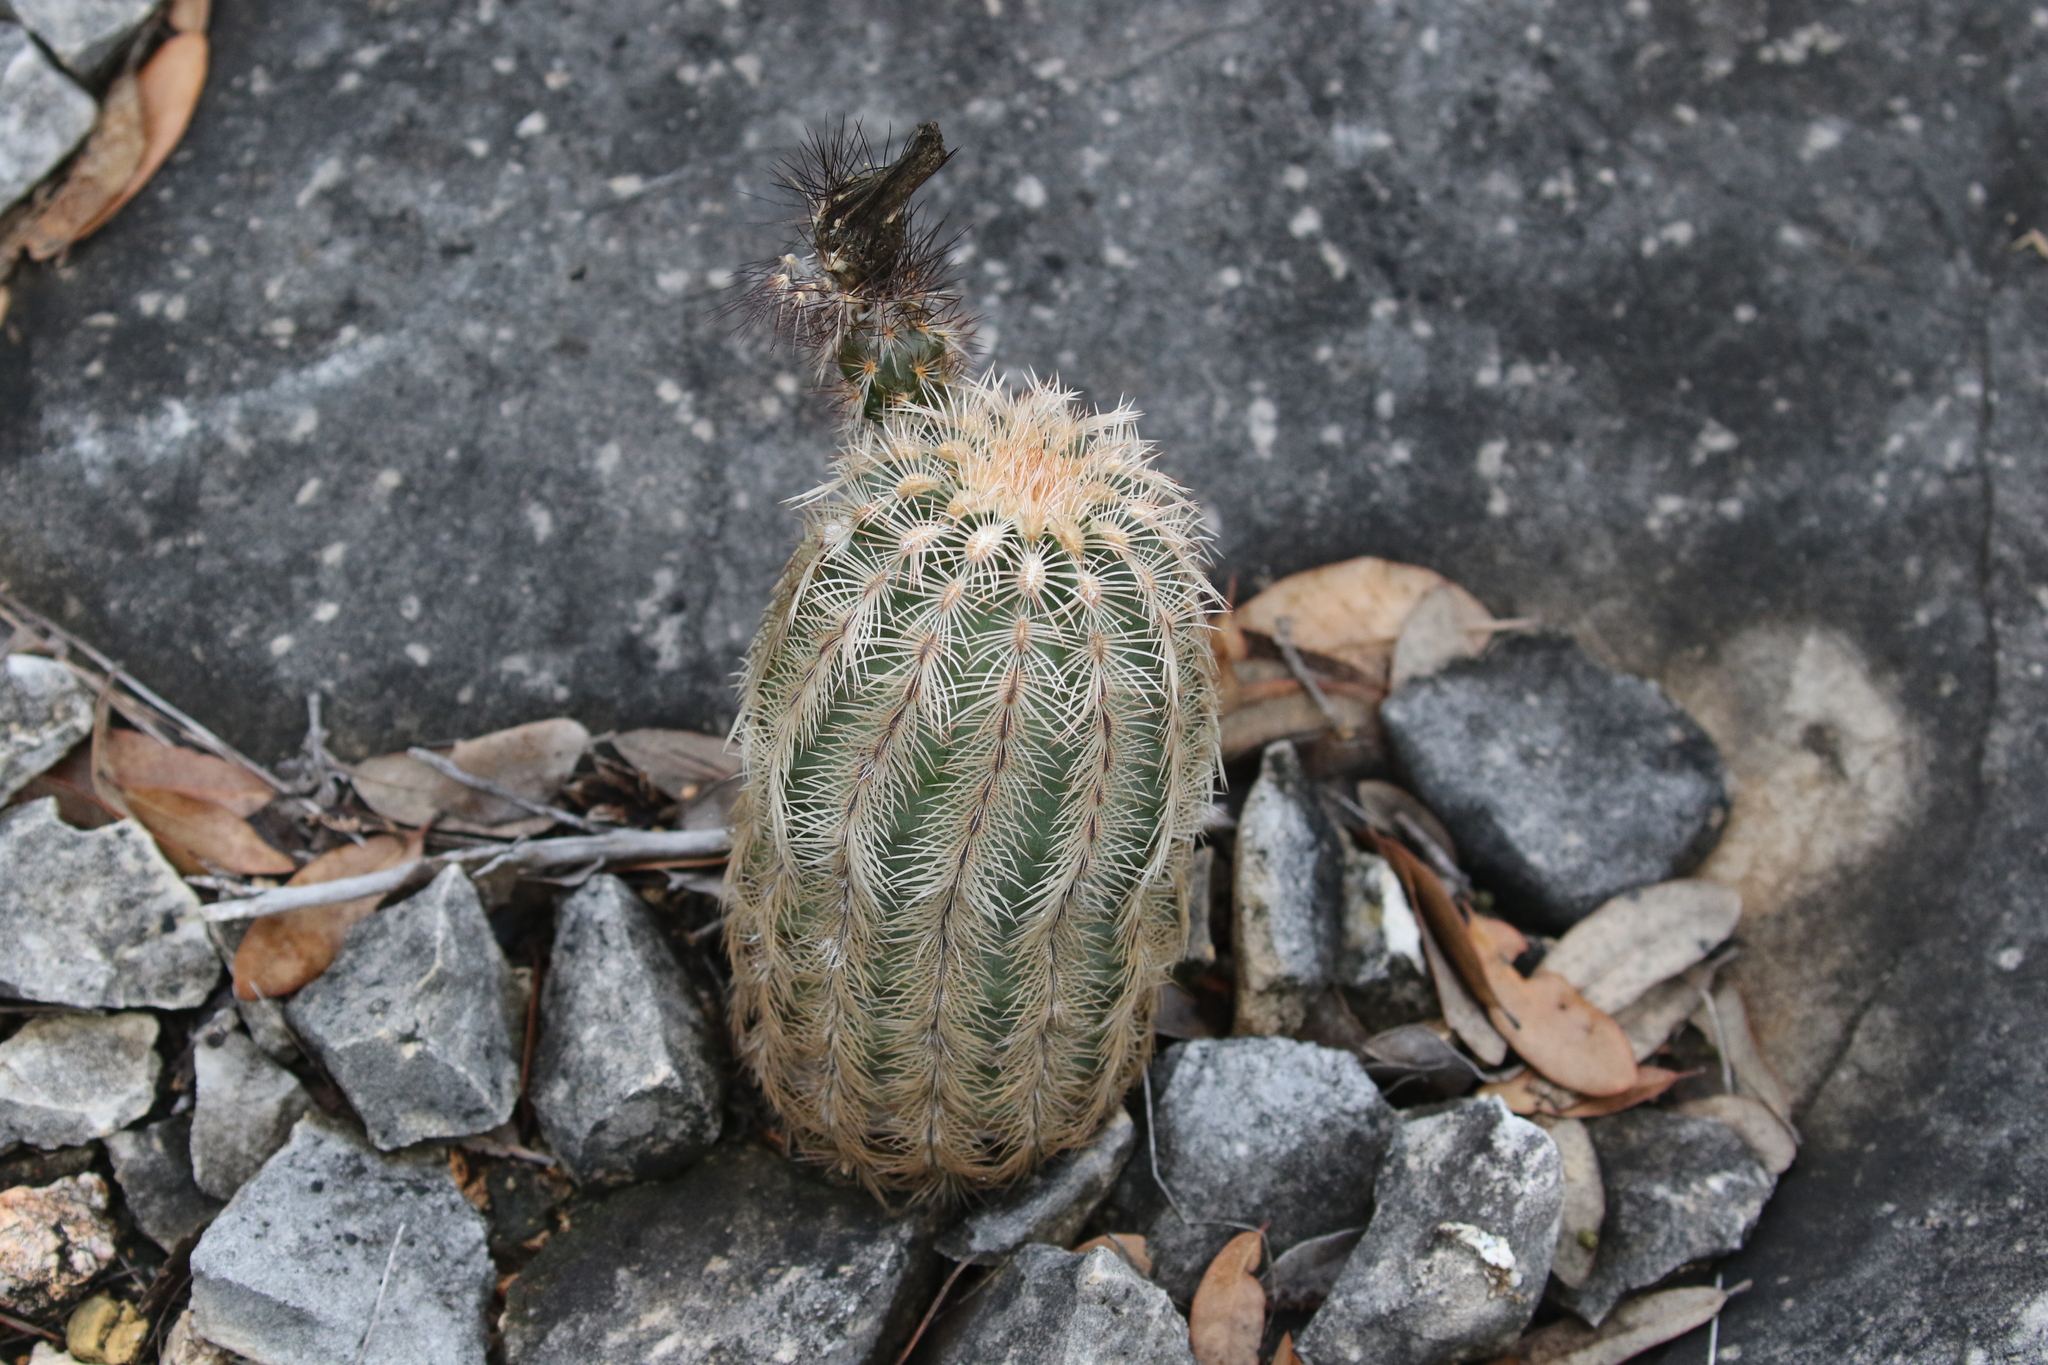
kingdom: Plantae
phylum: Tracheophyta
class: Magnoliopsida
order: Caryophyllales
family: Cactaceae
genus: Echinocereus
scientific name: Echinocereus reichenbachii
